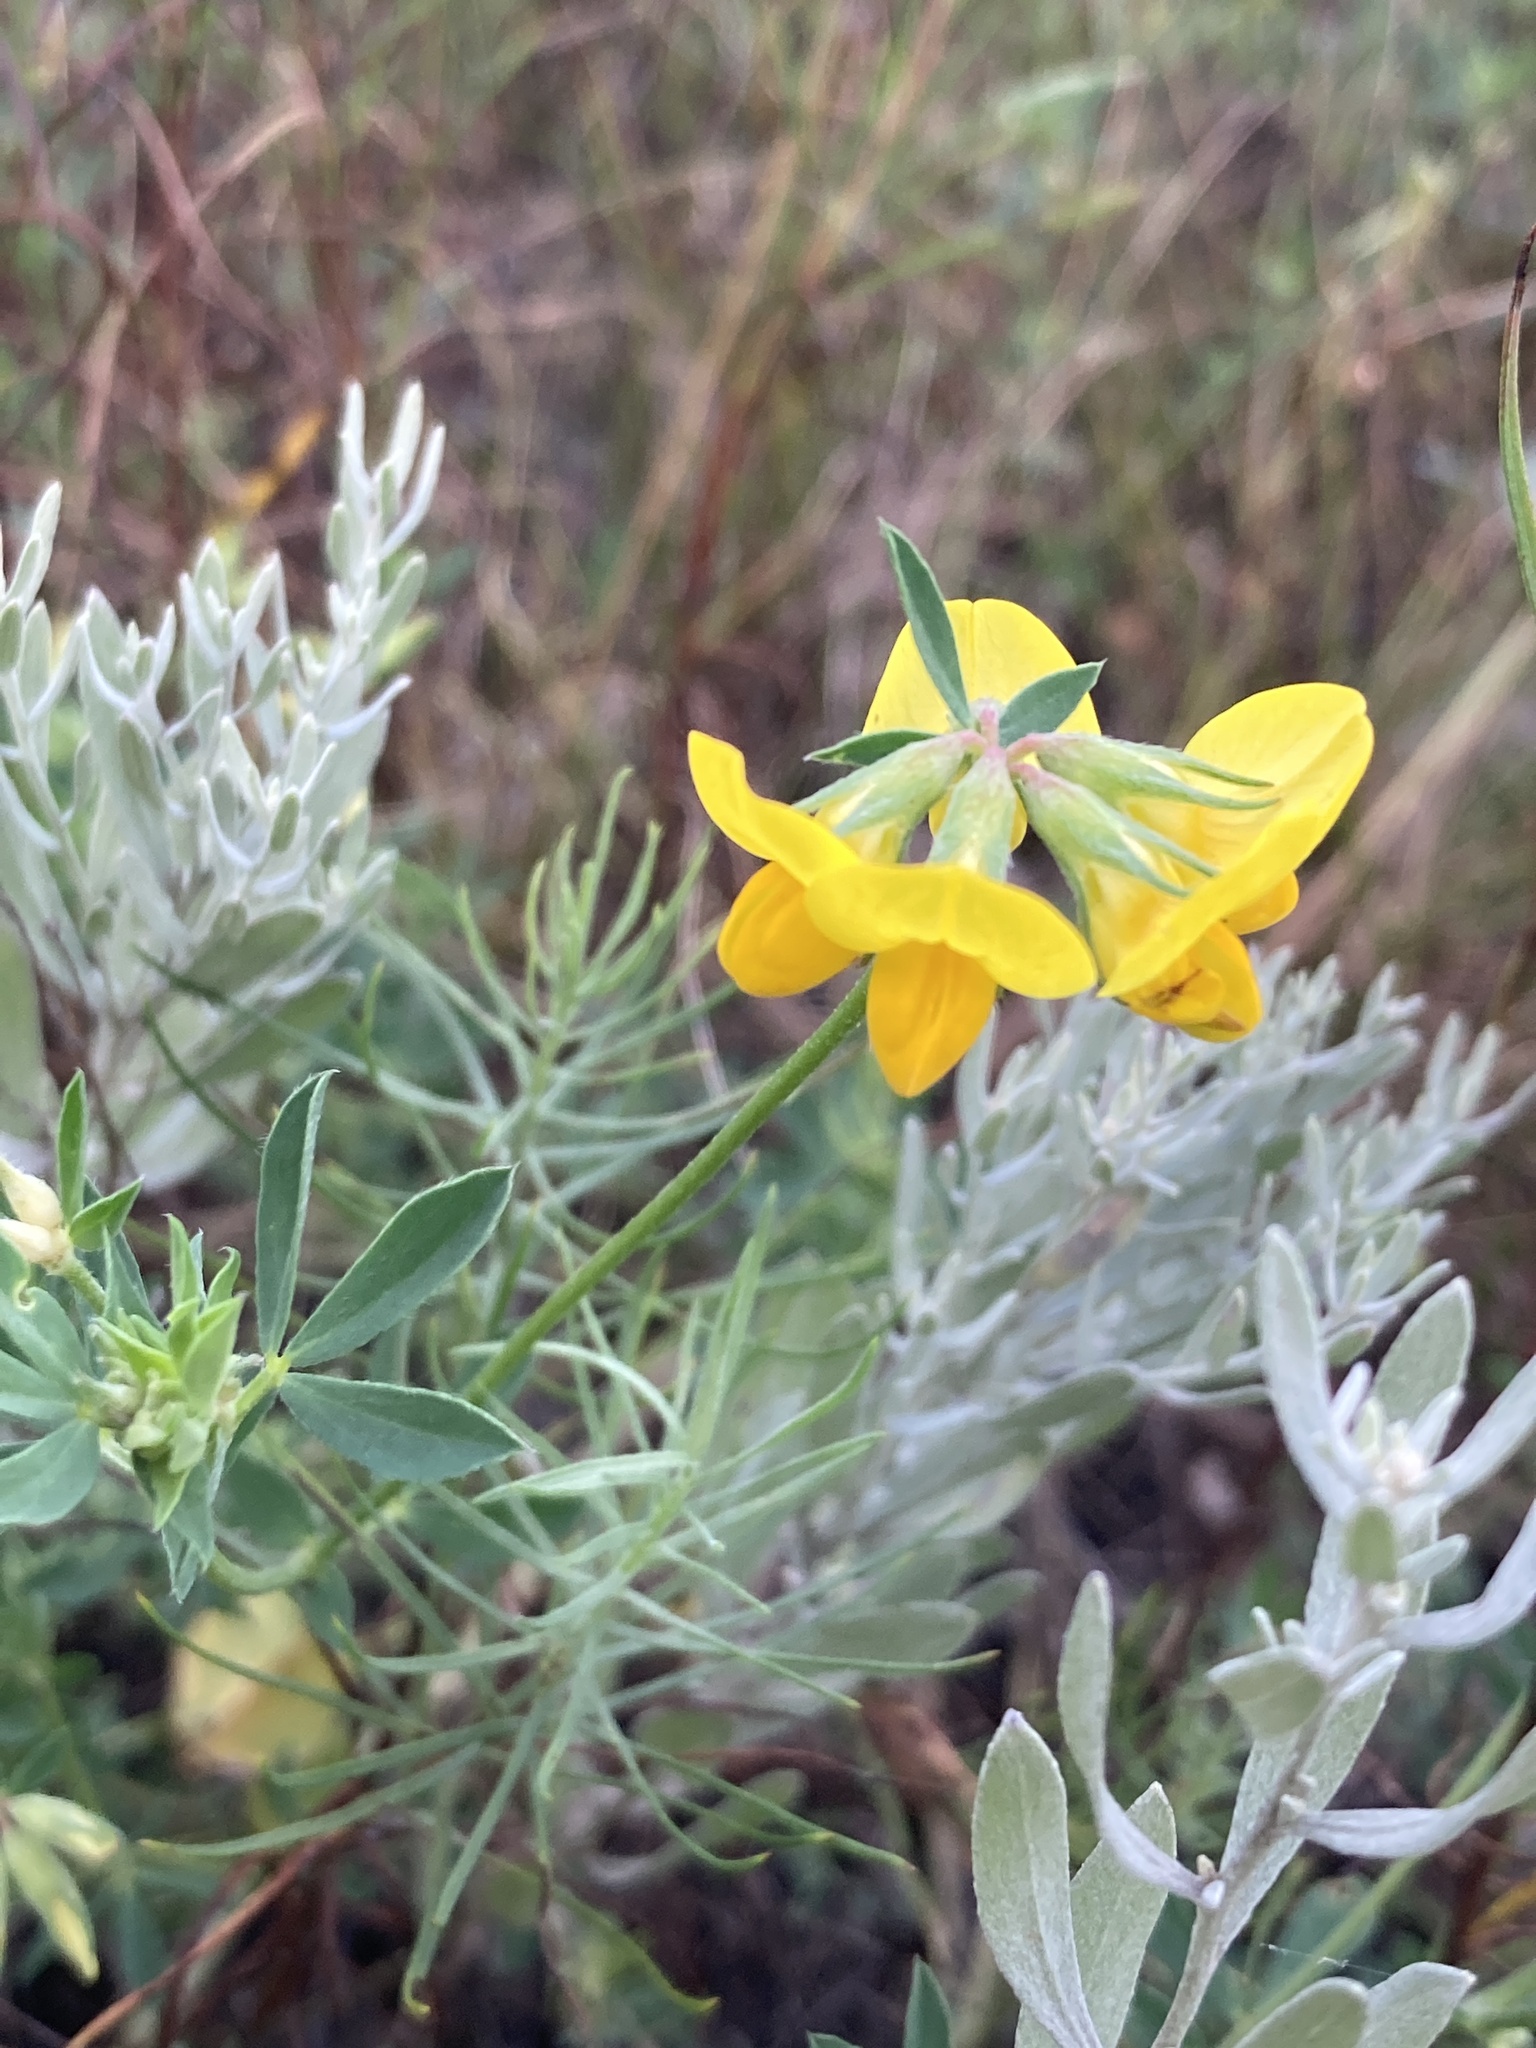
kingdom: Plantae
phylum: Tracheophyta
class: Magnoliopsida
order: Fabales
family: Fabaceae
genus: Lotus
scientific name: Lotus corniculatus
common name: Common bird's-foot-trefoil
